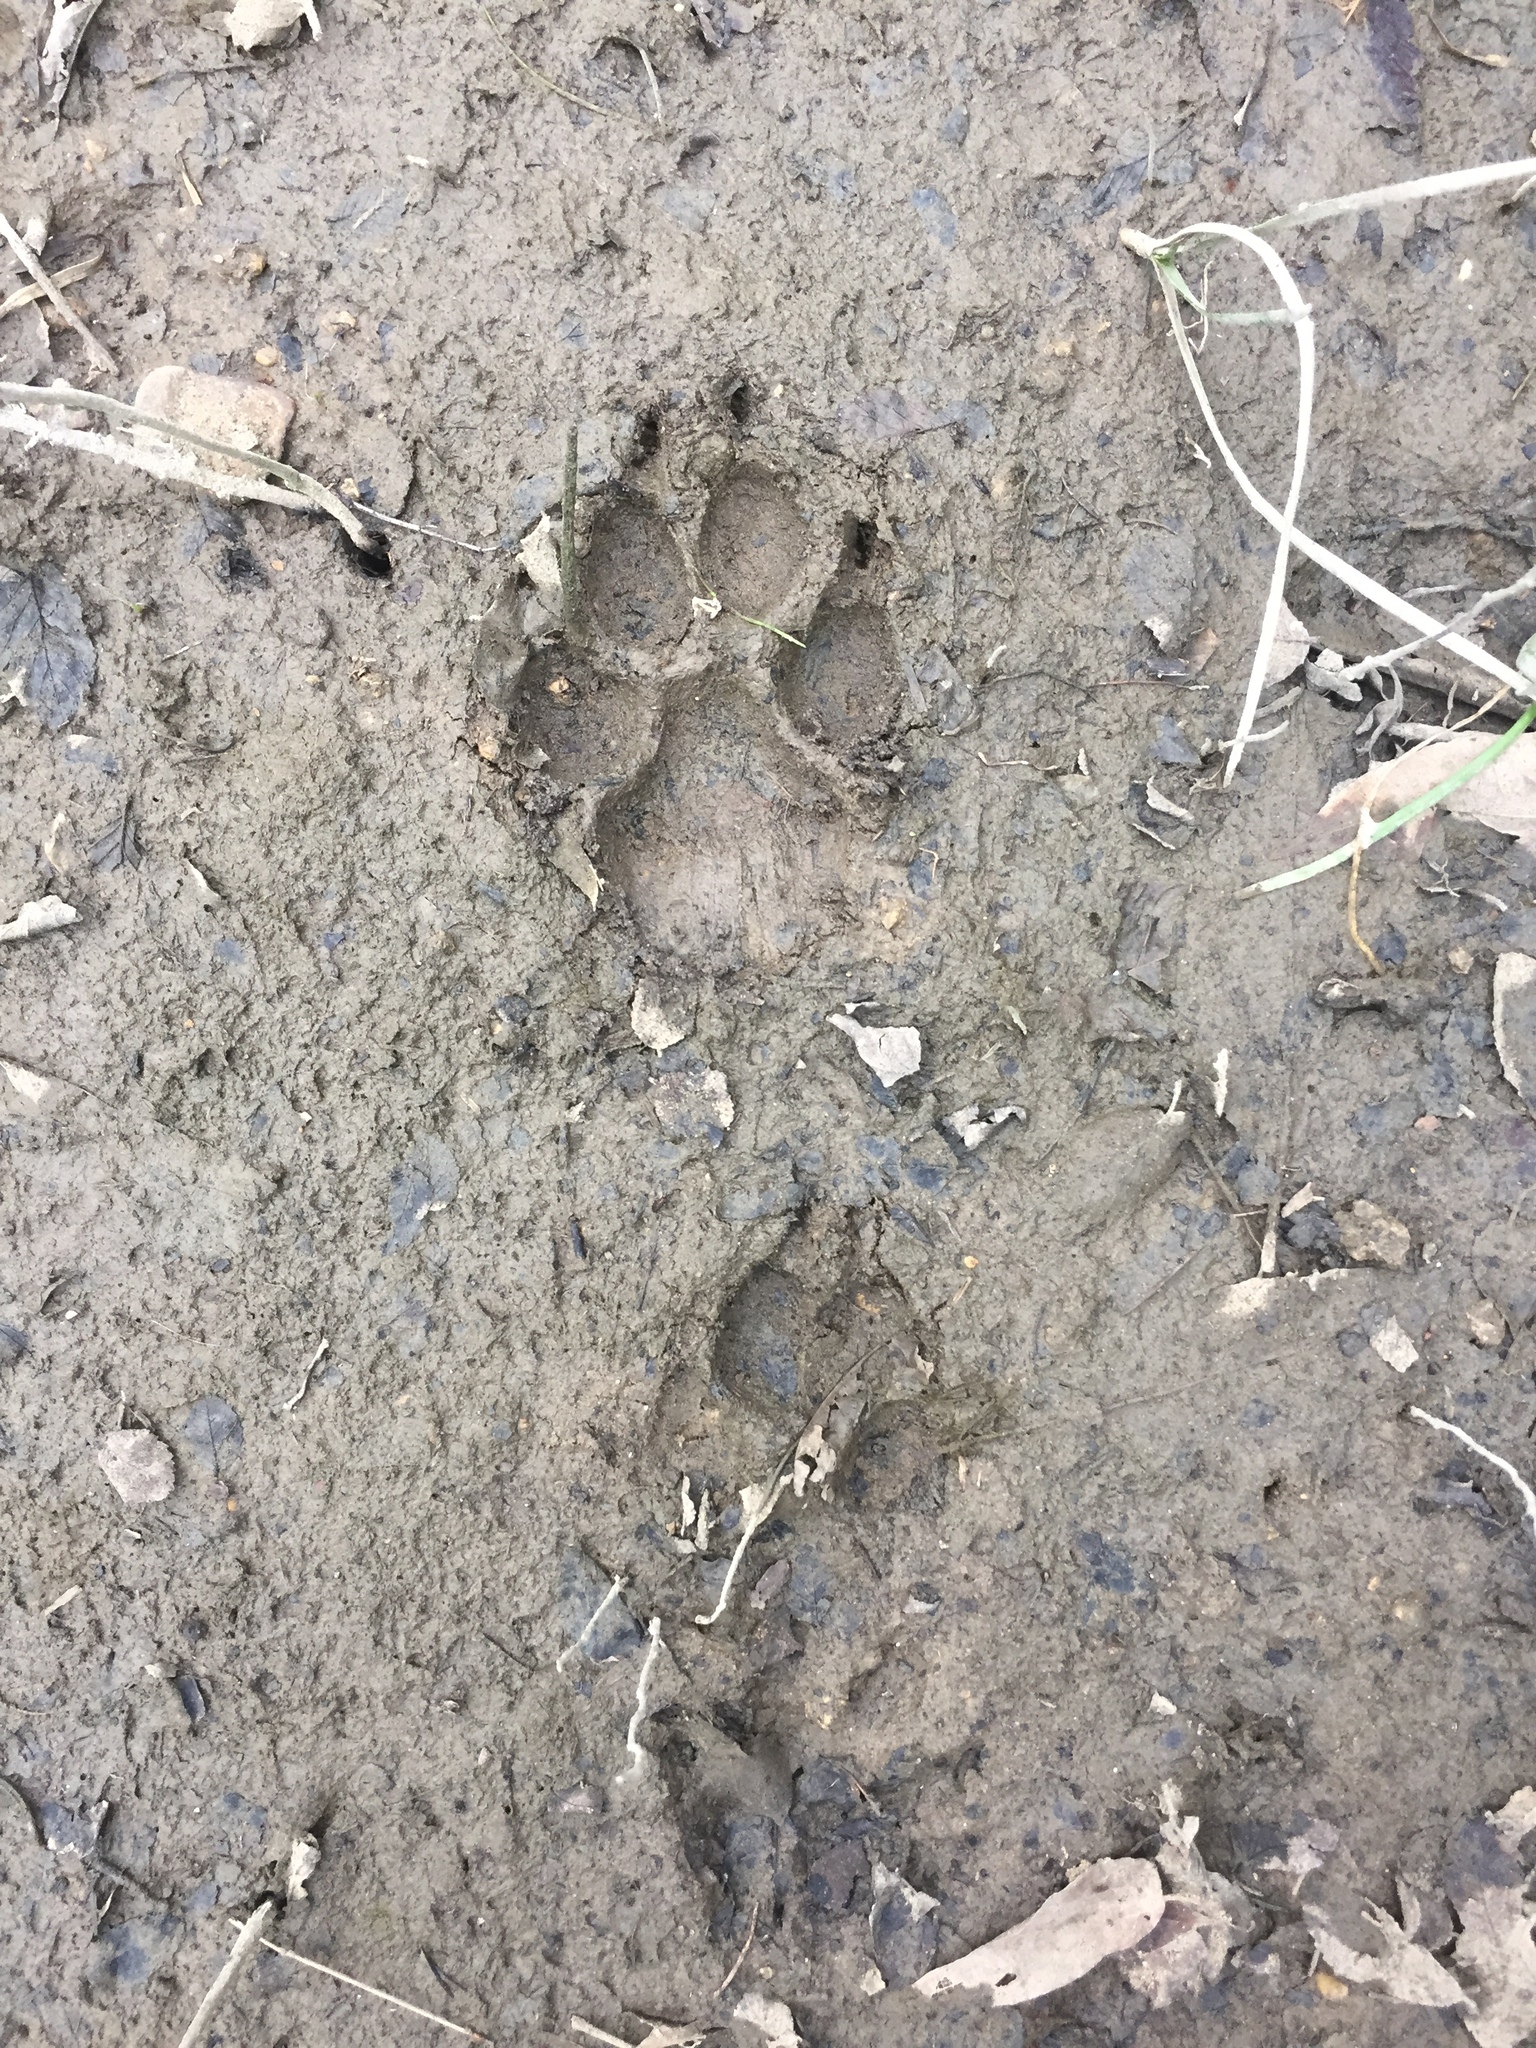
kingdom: Animalia
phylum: Chordata
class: Mammalia
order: Carnivora
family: Canidae
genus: Canis
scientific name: Canis latrans
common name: Coyote
